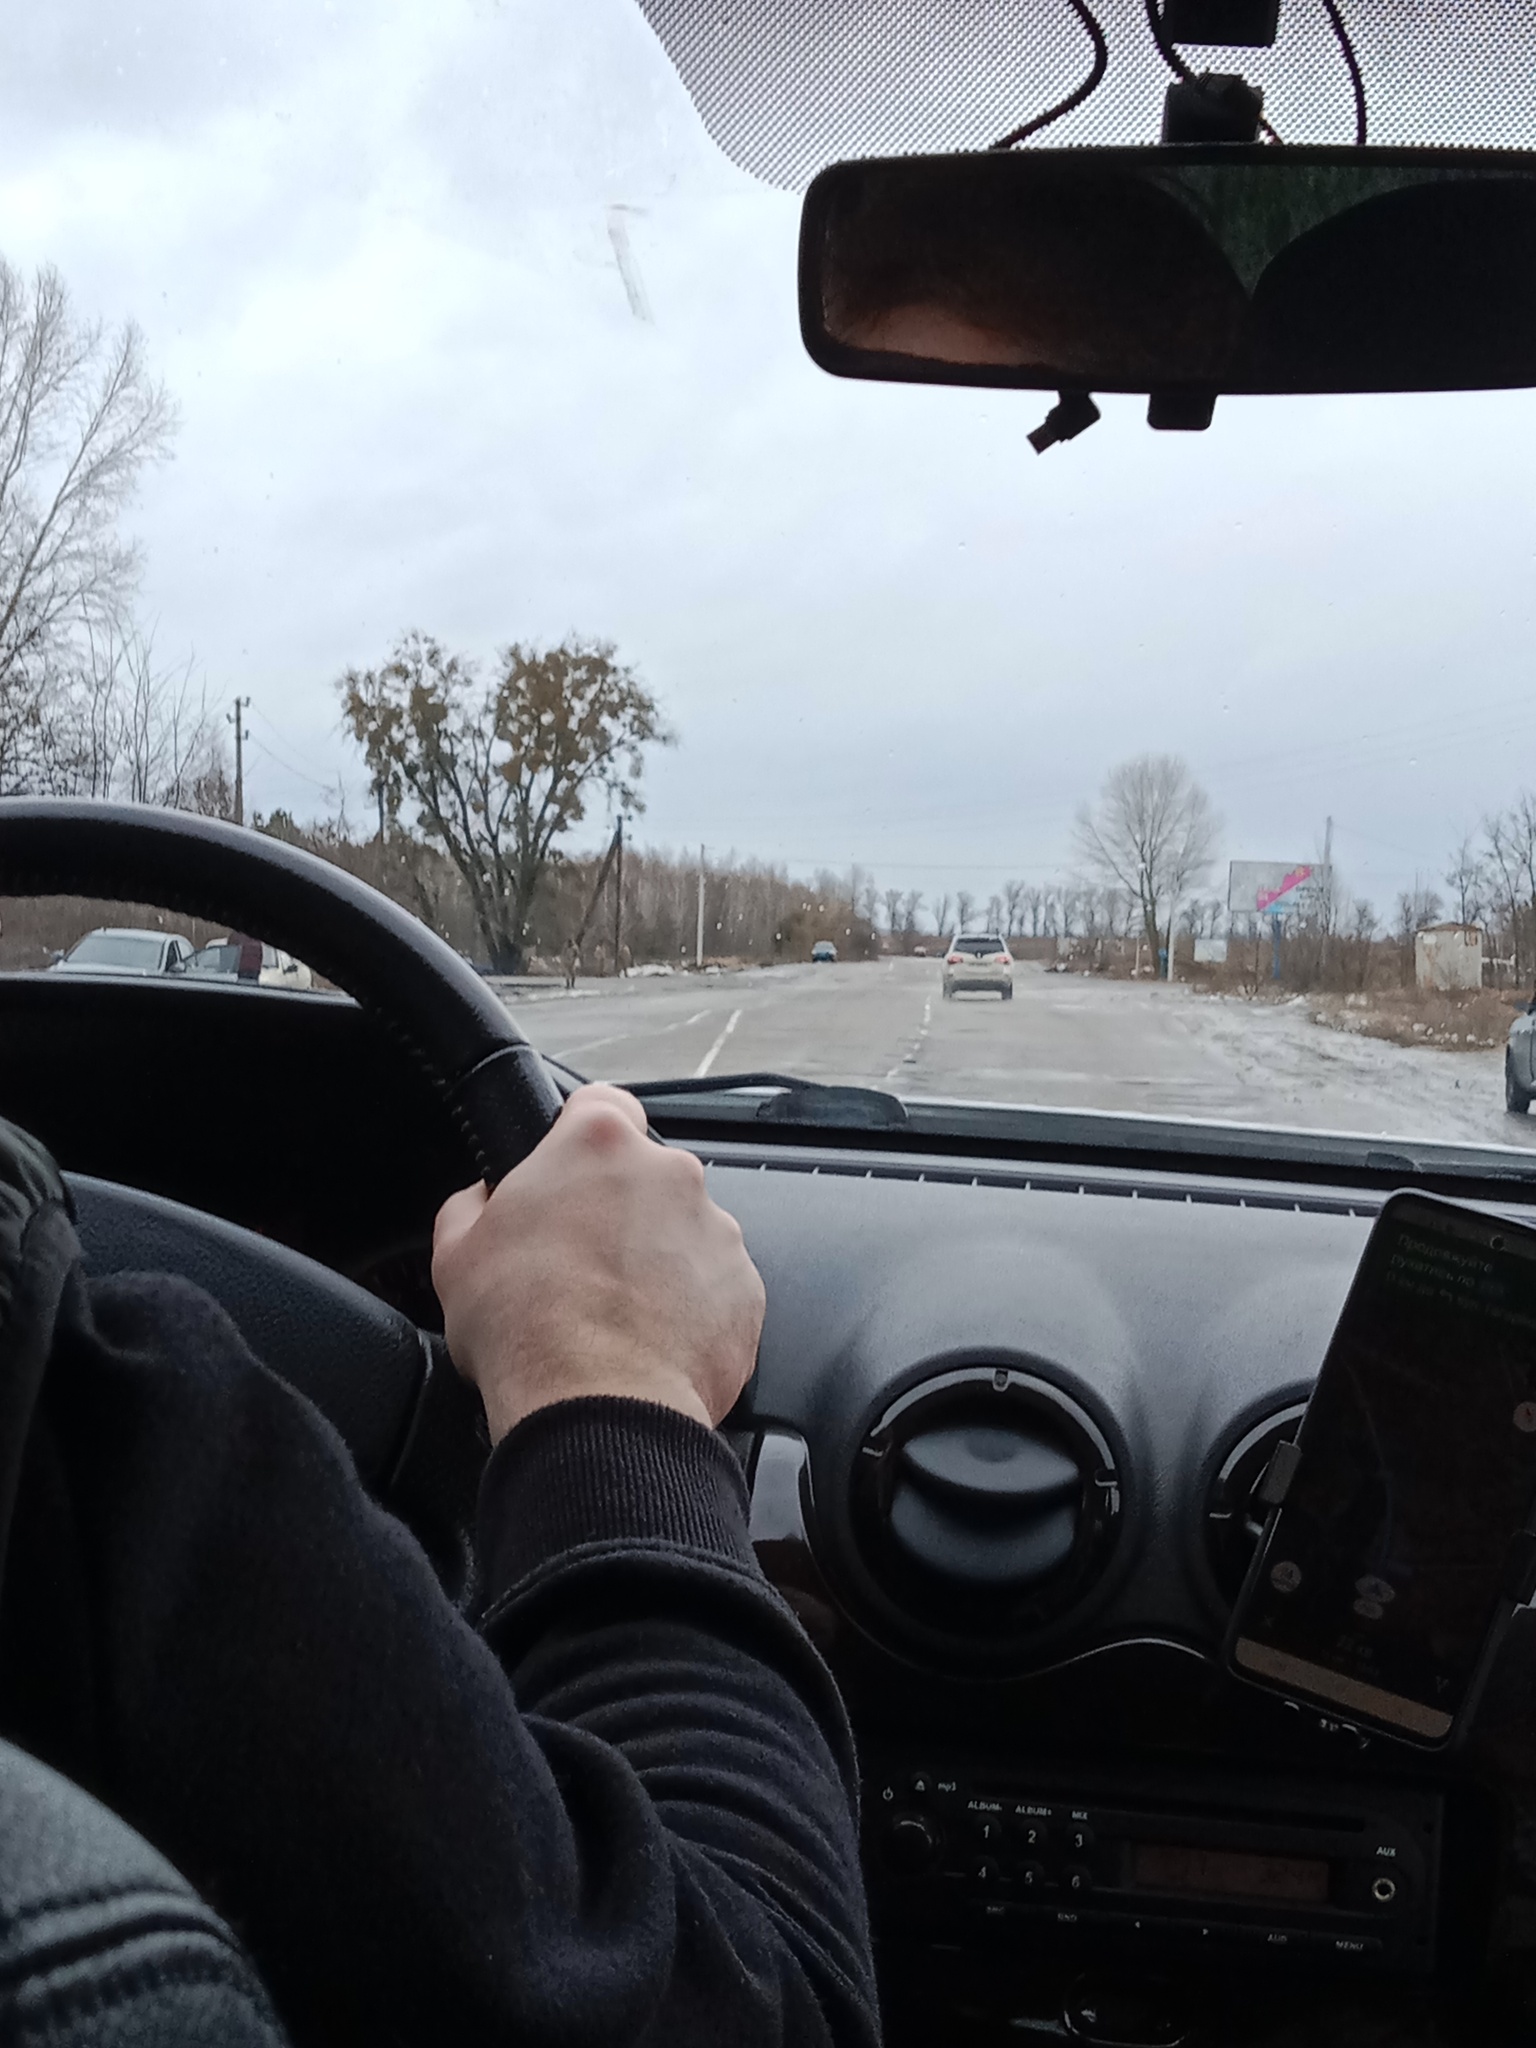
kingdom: Plantae
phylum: Tracheophyta
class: Magnoliopsida
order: Santalales
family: Viscaceae
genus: Viscum
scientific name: Viscum album
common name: Mistletoe
